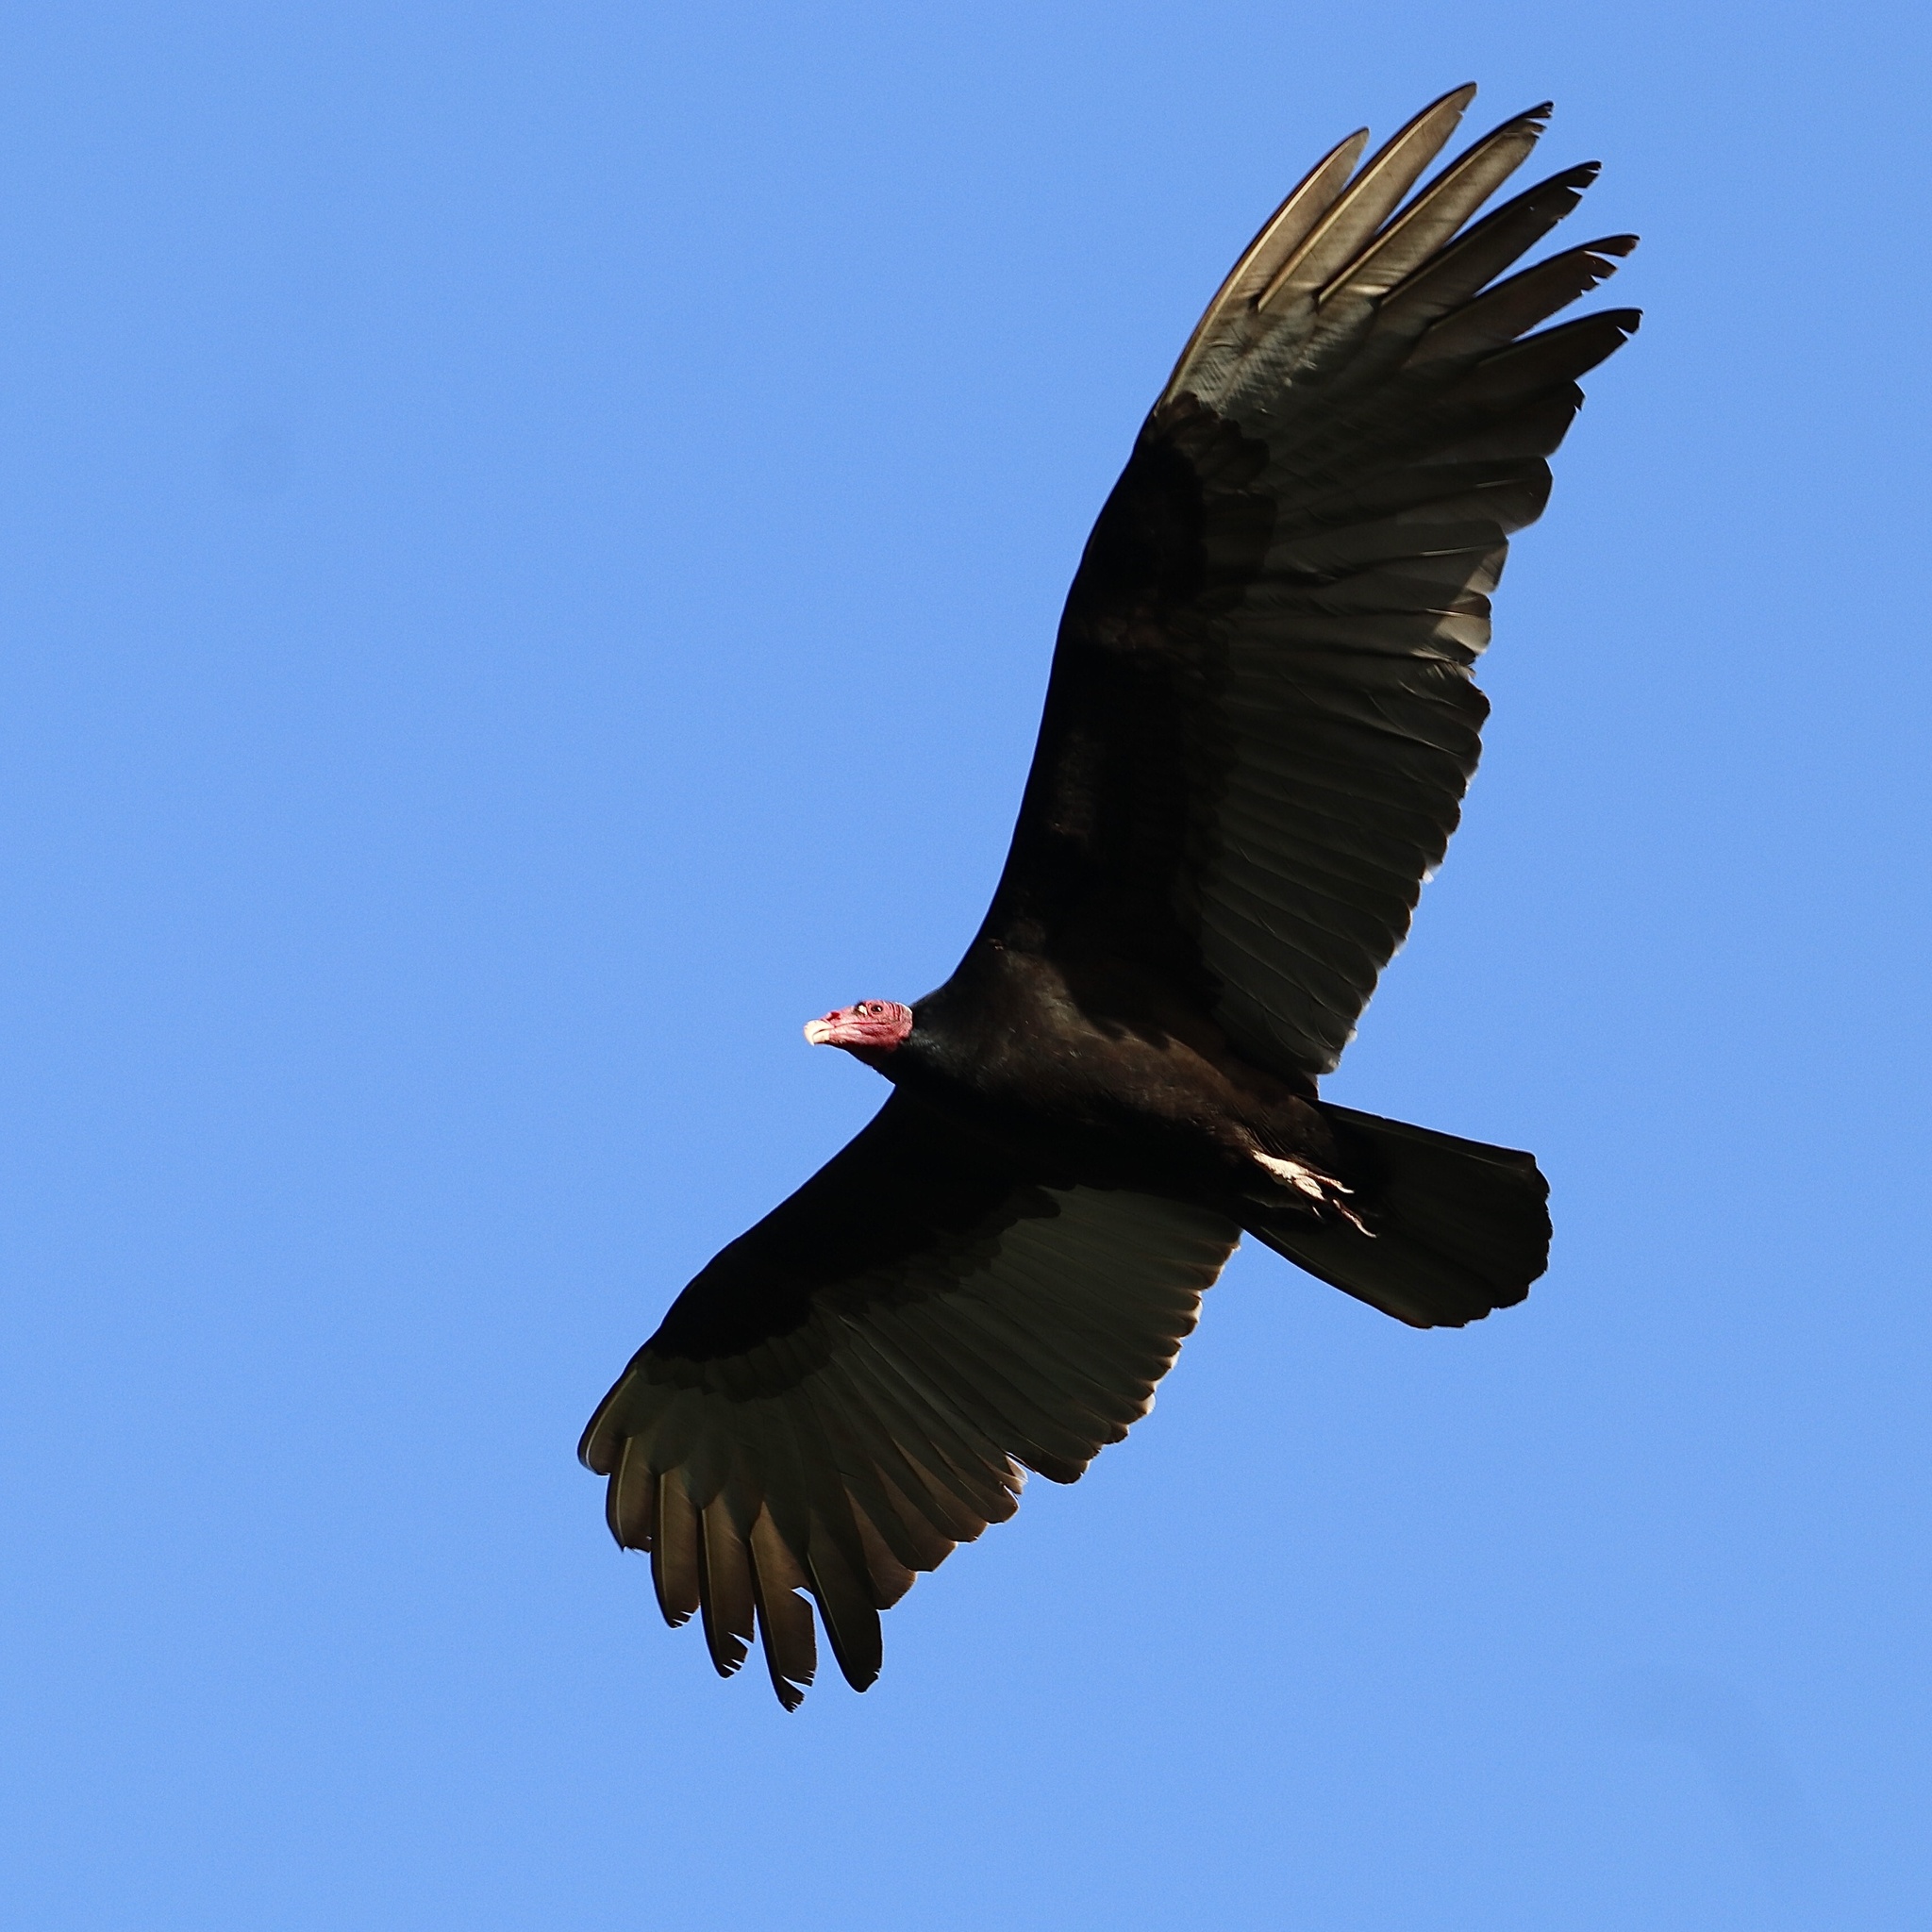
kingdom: Animalia
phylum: Chordata
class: Aves
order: Accipitriformes
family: Cathartidae
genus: Cathartes
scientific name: Cathartes aura
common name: Turkey vulture
